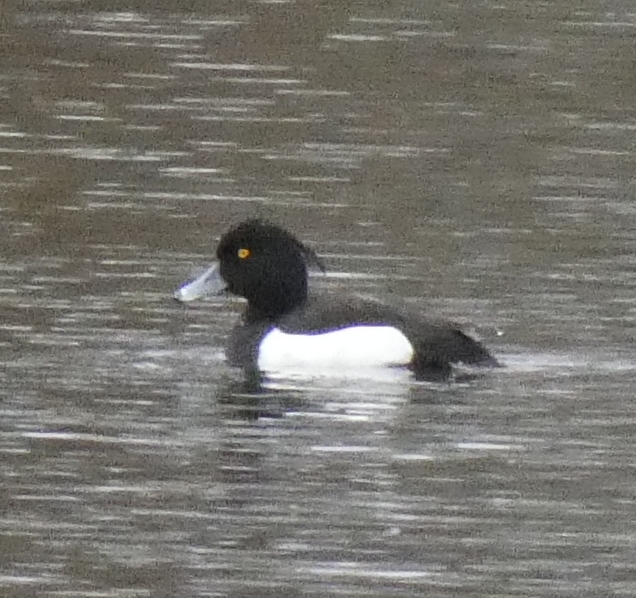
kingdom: Animalia
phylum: Chordata
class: Aves
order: Anseriformes
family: Anatidae
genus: Aythya
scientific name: Aythya fuligula
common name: Tufted duck
